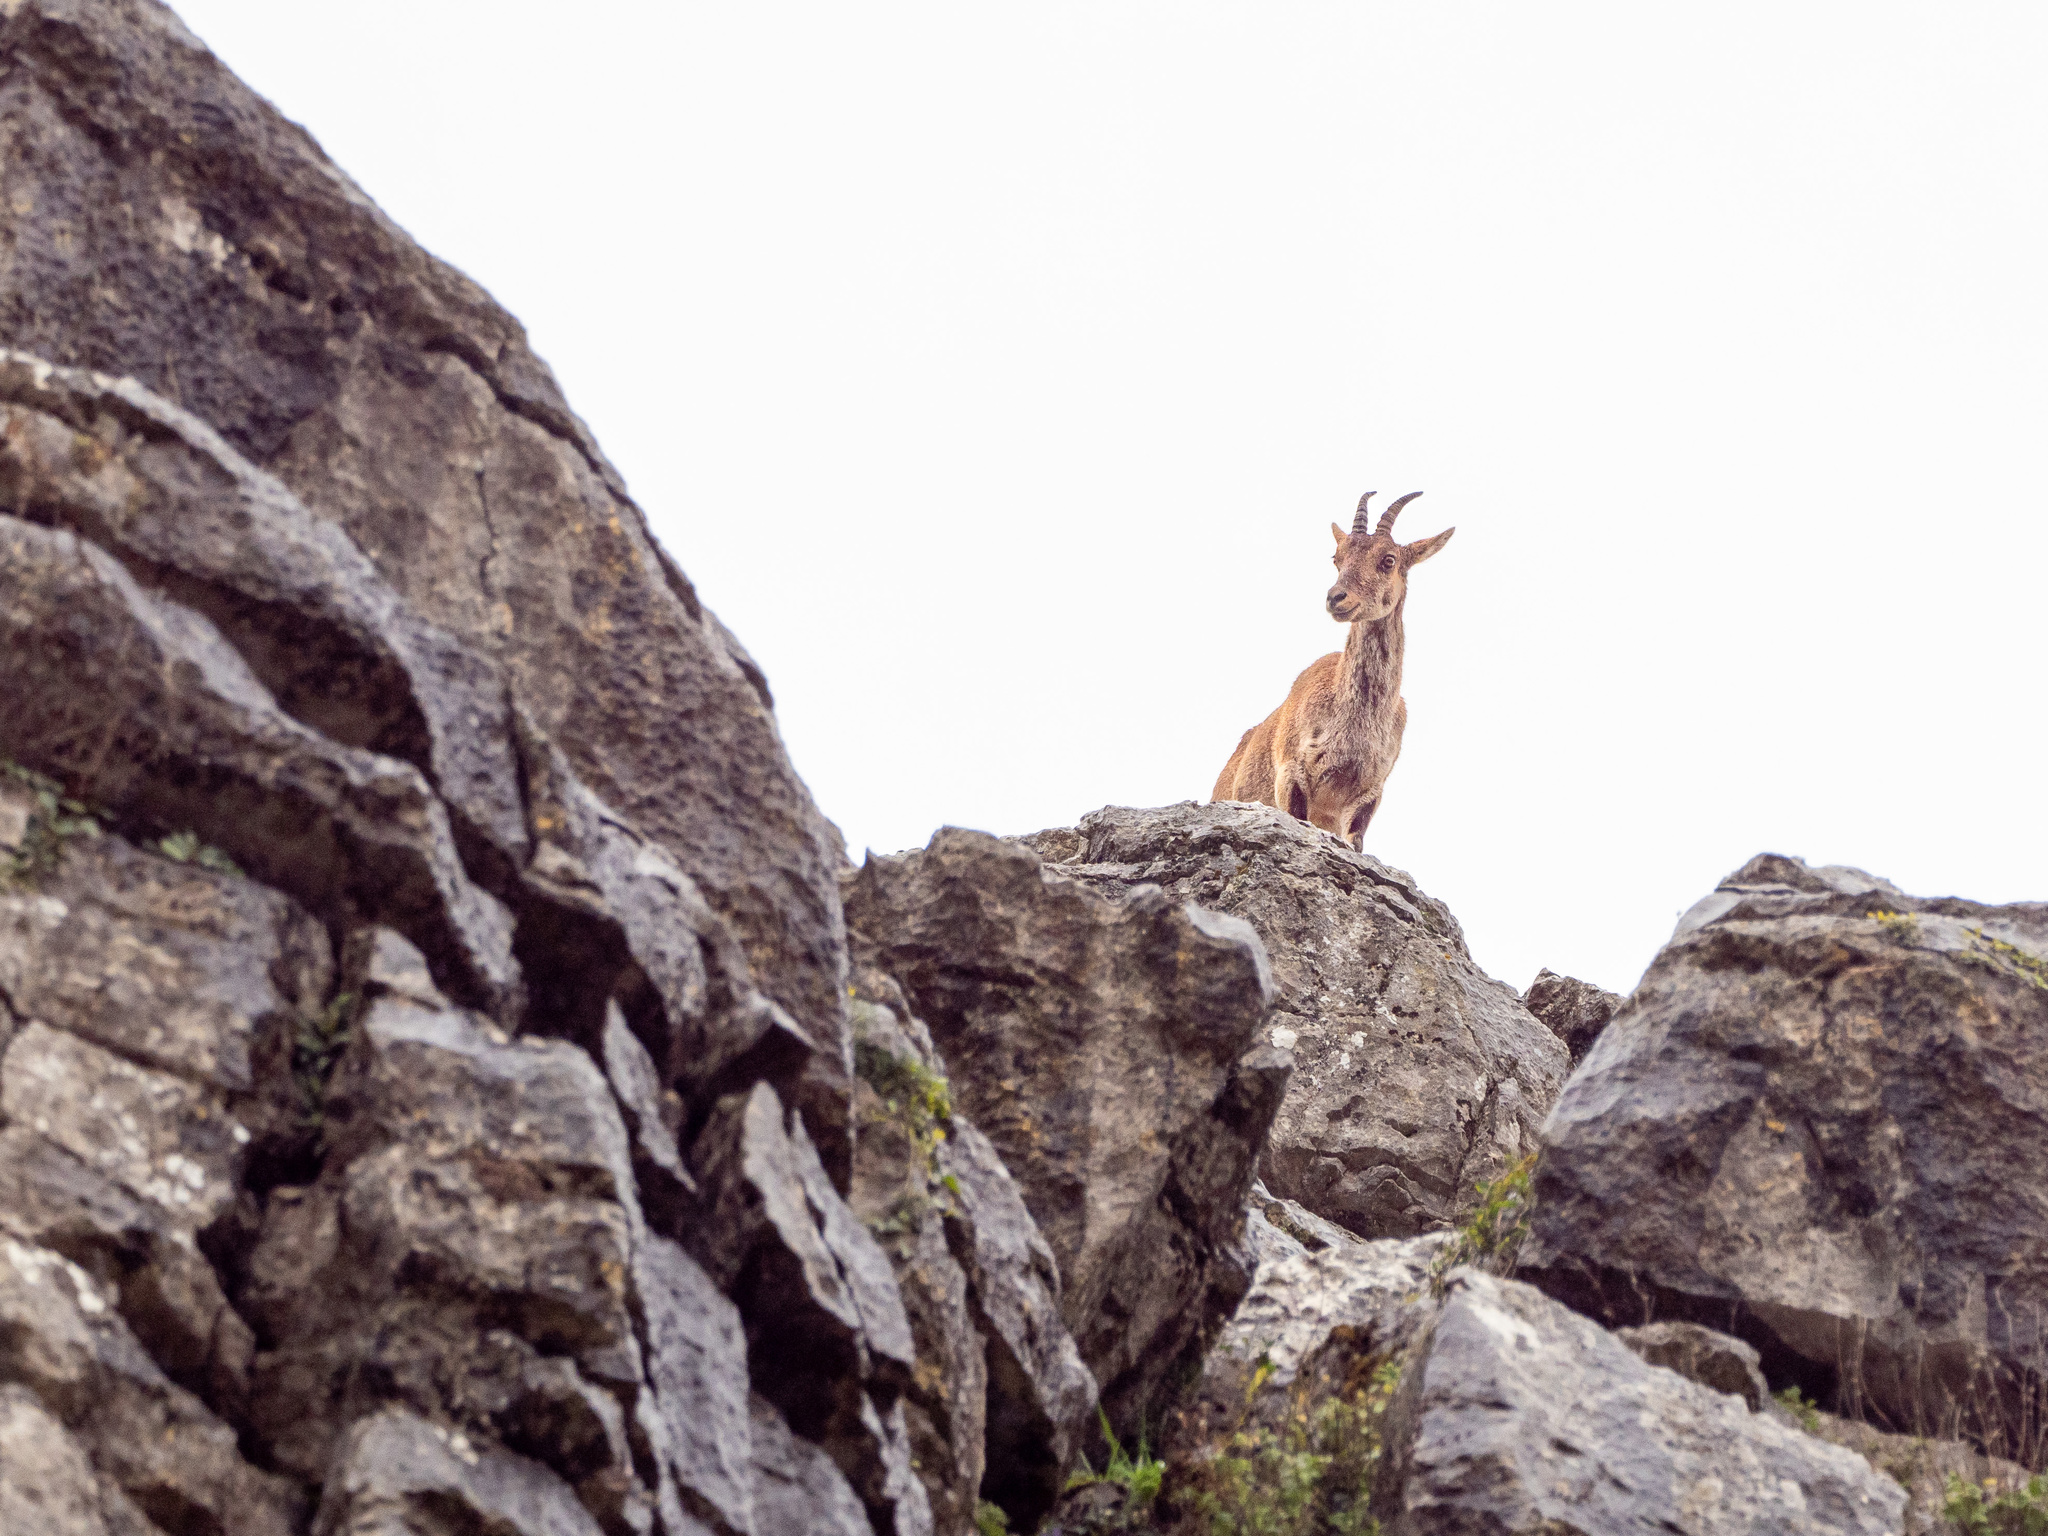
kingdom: Animalia
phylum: Chordata
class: Mammalia
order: Artiodactyla
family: Bovidae
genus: Capra
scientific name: Capra pyrenaica
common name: Spanish ibex
